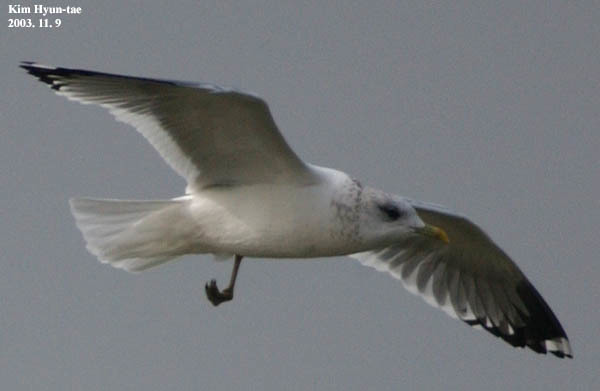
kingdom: Animalia
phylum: Chordata
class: Aves
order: Charadriiformes
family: Laridae
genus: Larus
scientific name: Larus canus
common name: Mew gull
